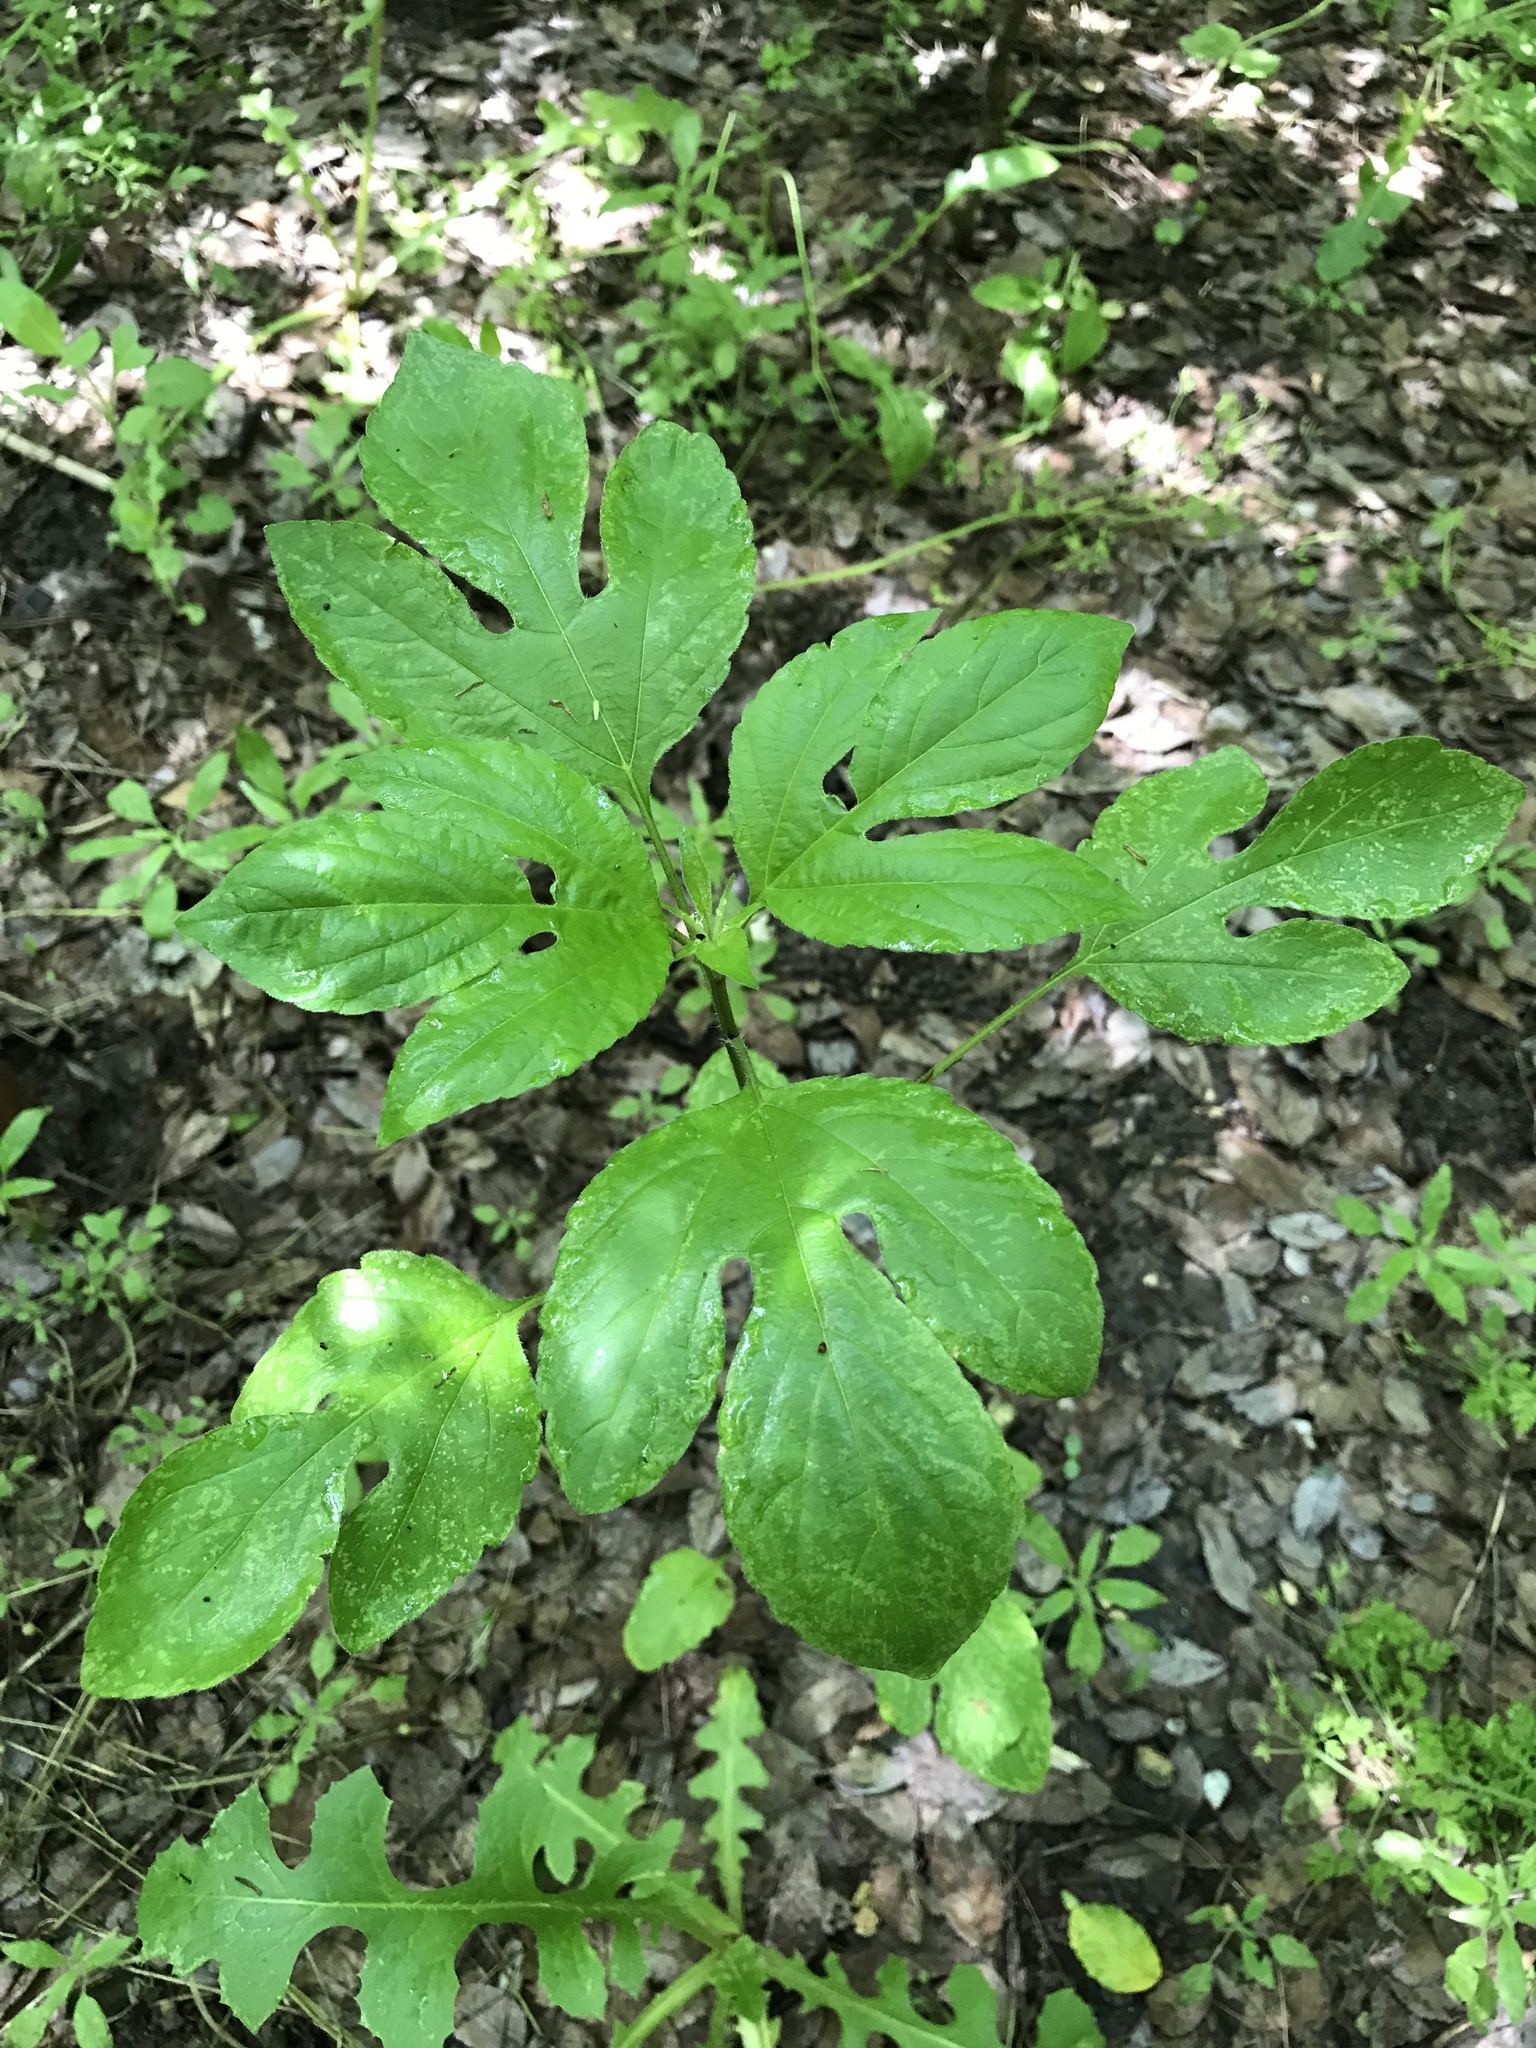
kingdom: Plantae
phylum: Tracheophyta
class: Magnoliopsida
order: Asterales
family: Asteraceae
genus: Ambrosia
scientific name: Ambrosia trifida
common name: Giant ragweed
